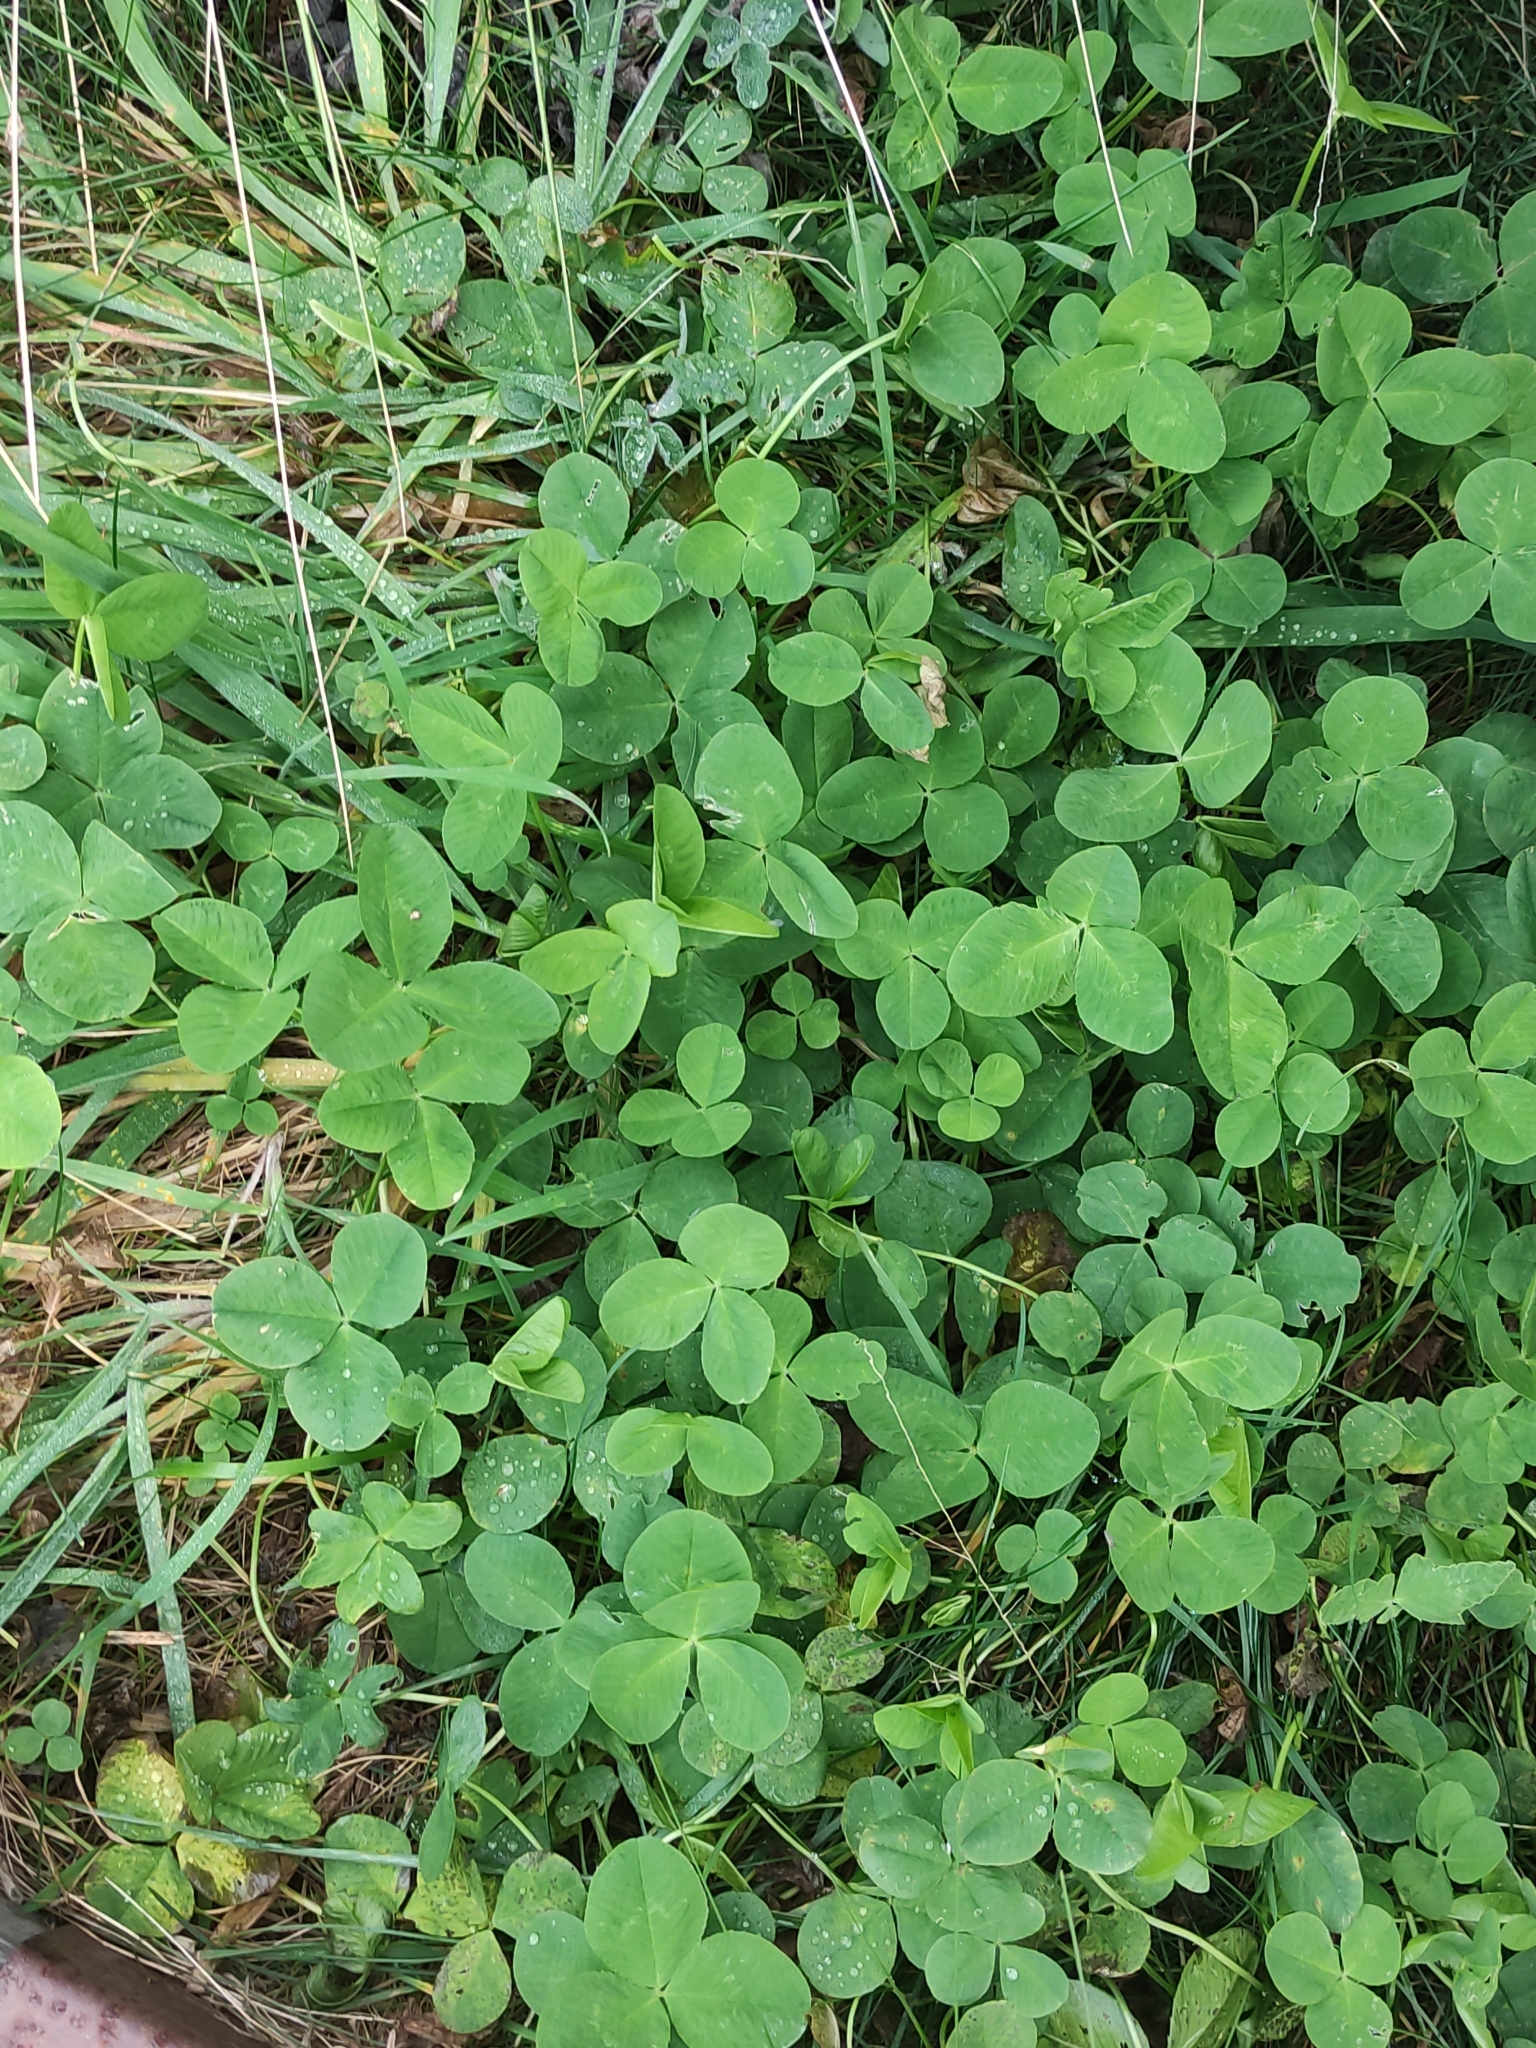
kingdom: Plantae
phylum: Tracheophyta
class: Magnoliopsida
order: Fabales
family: Fabaceae
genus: Trifolium
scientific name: Trifolium repens
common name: White clover
